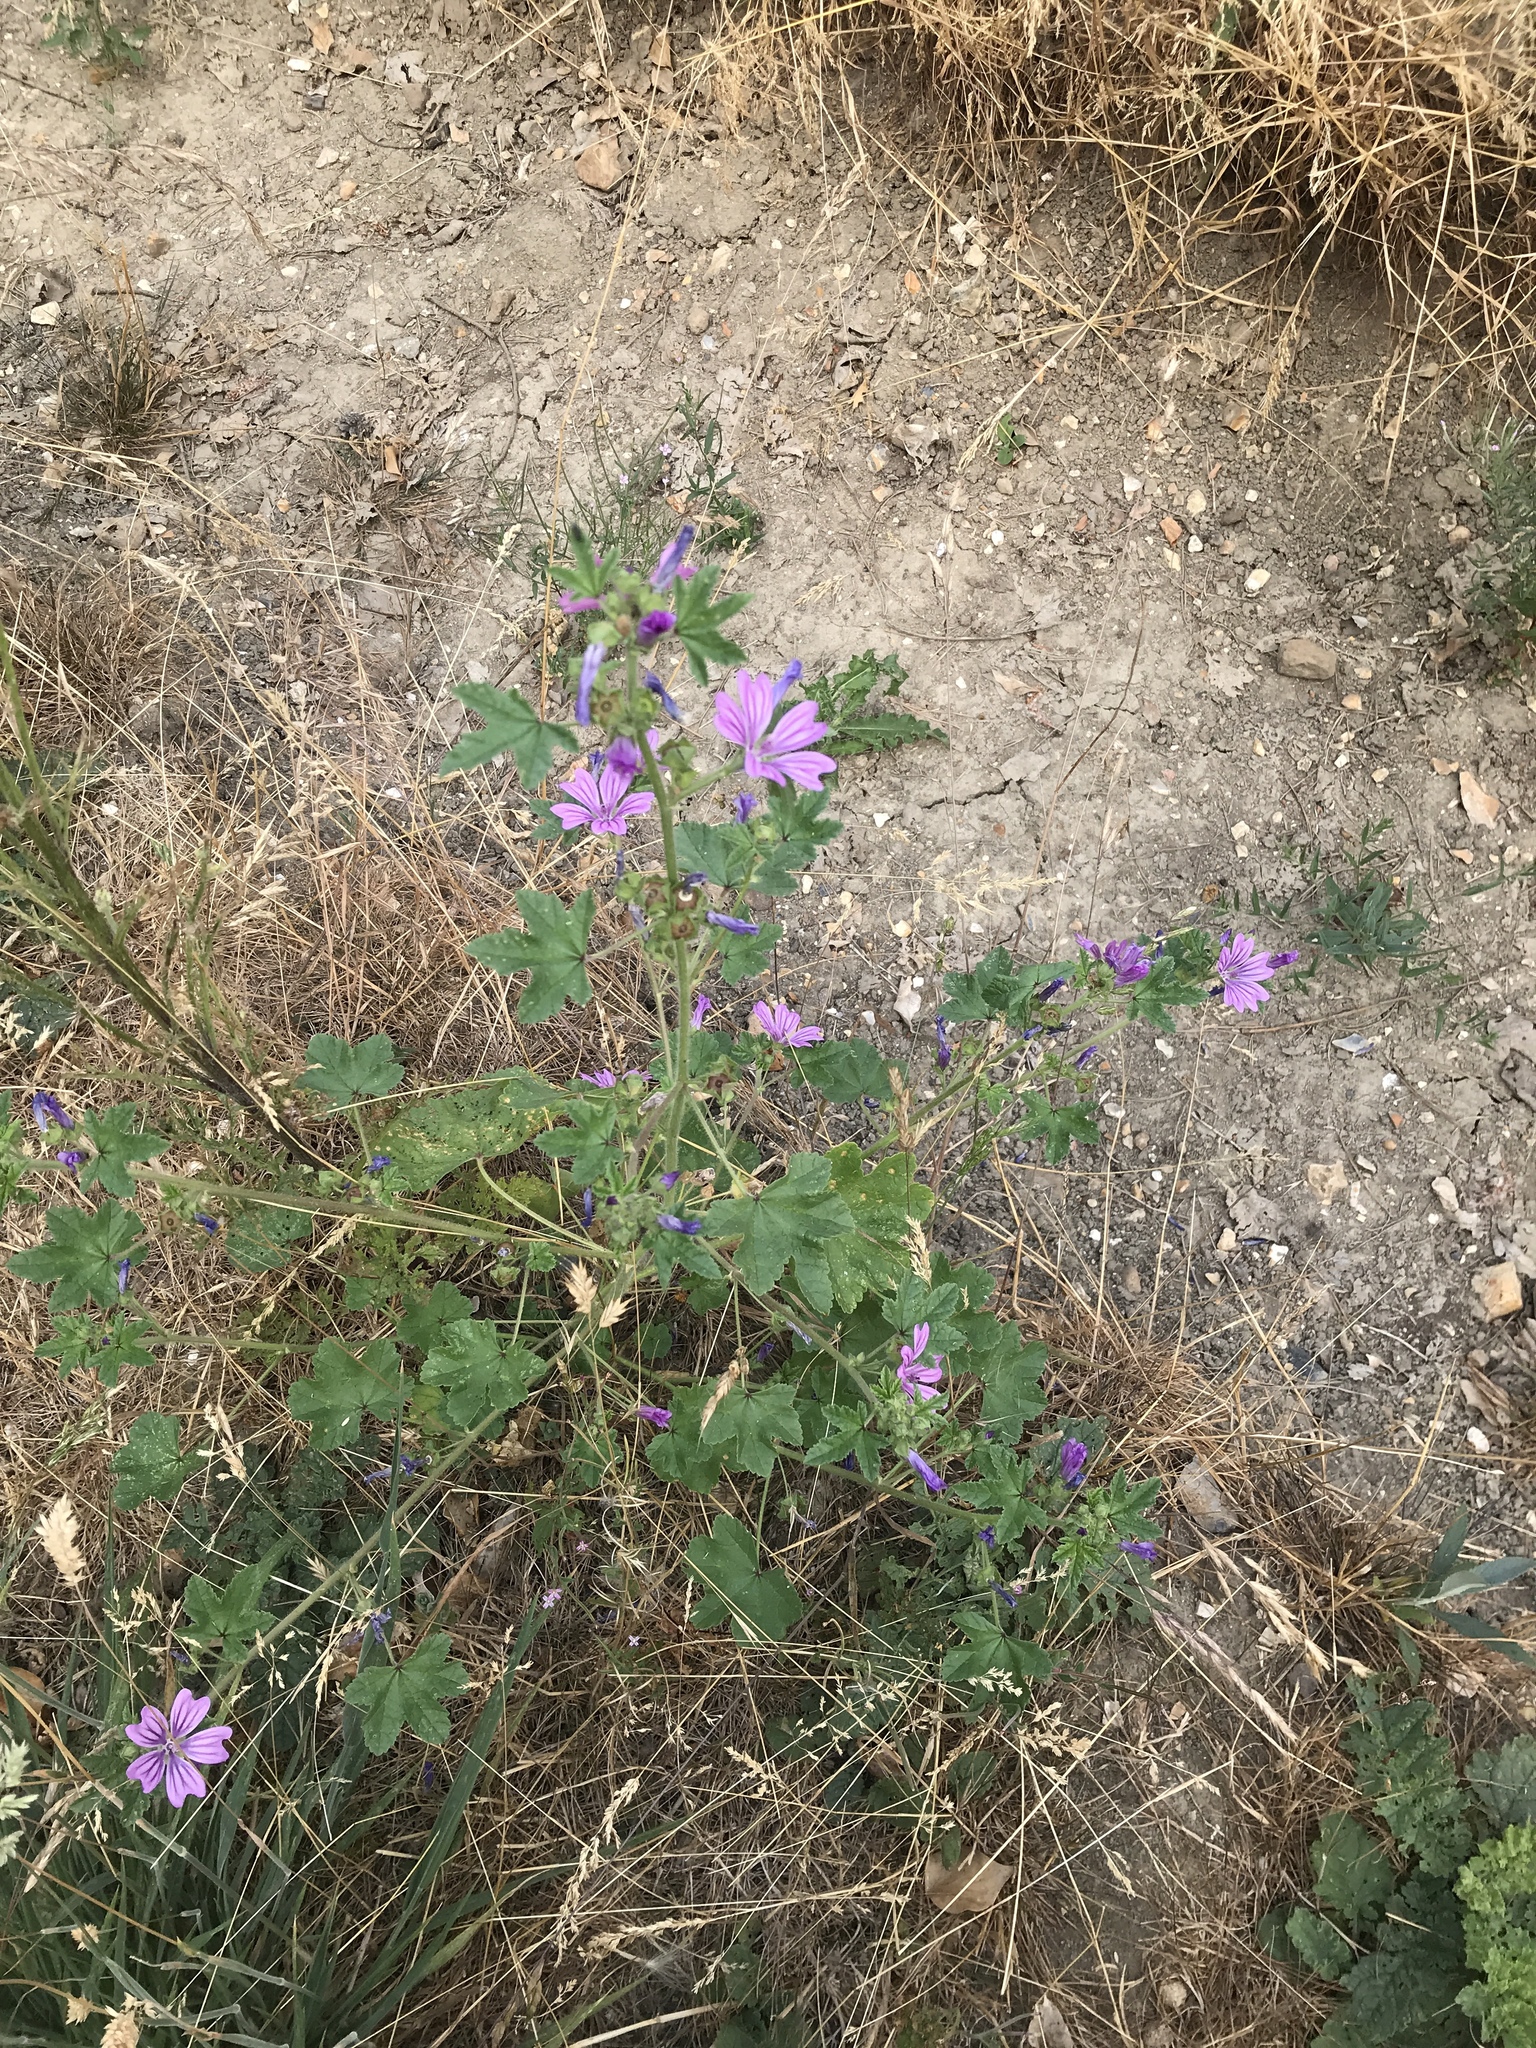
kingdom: Plantae
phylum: Tracheophyta
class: Magnoliopsida
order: Malvales
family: Malvaceae
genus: Malva
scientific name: Malva sylvestris
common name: Common mallow
